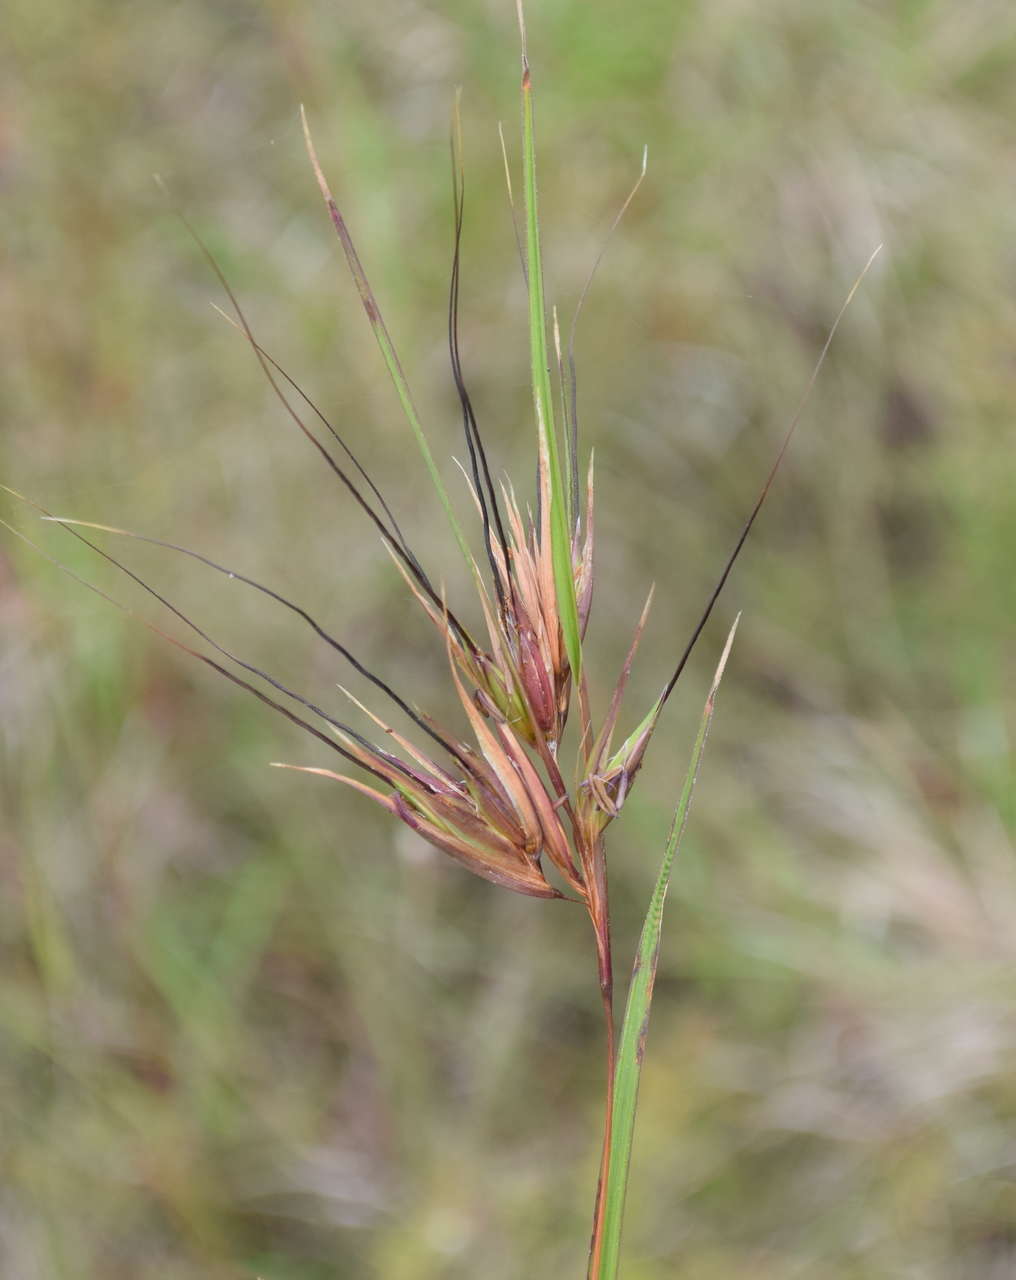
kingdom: Plantae
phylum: Tracheophyta
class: Liliopsida
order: Poales
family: Poaceae
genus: Themeda
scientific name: Themeda triandra
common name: Kangaroo grass
